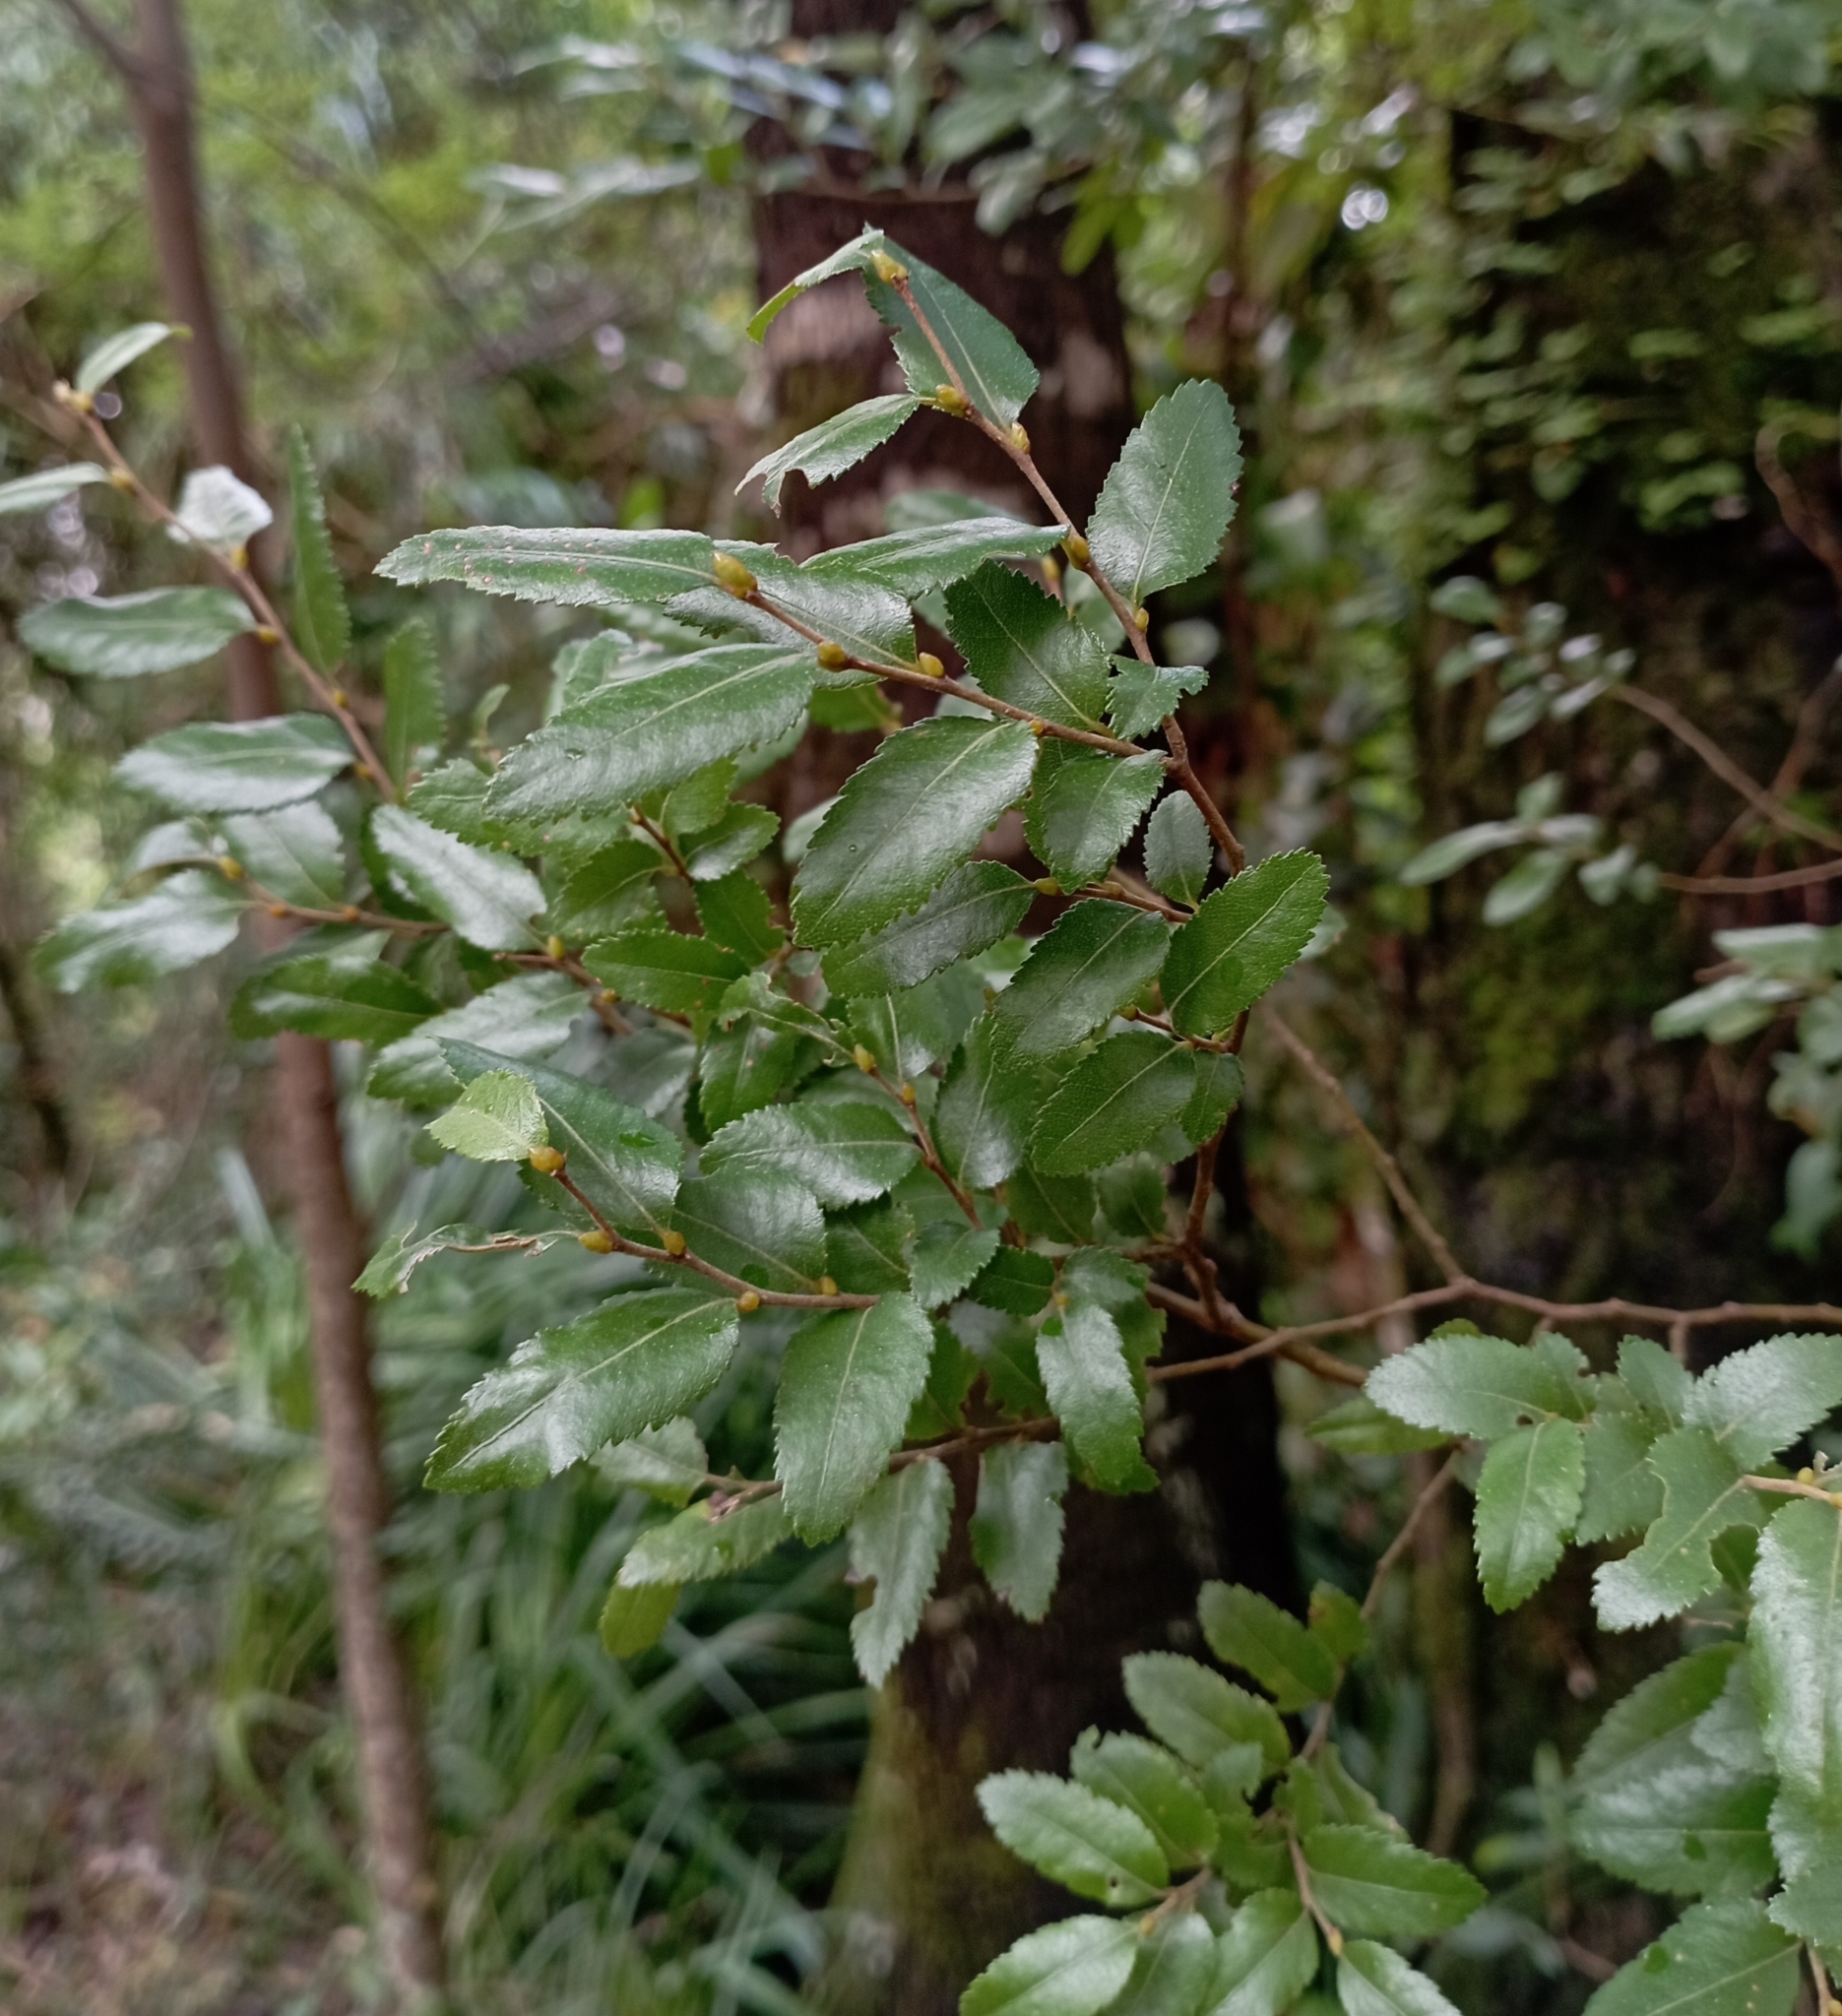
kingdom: Plantae
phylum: Tracheophyta
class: Magnoliopsida
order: Fagales
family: Nothofagaceae
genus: Nothofagus
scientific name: Nothofagus dombeyi
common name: Coigue
